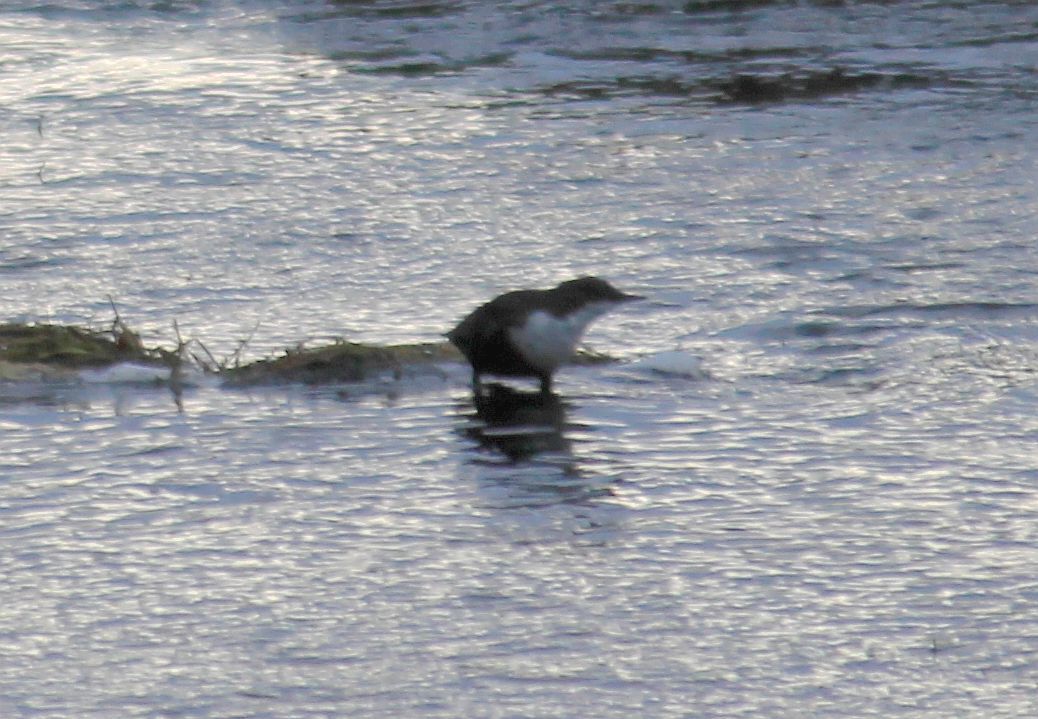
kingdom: Animalia
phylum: Chordata
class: Aves
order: Passeriformes
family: Cinclidae
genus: Cinclus
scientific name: Cinclus cinclus
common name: White-throated dipper
